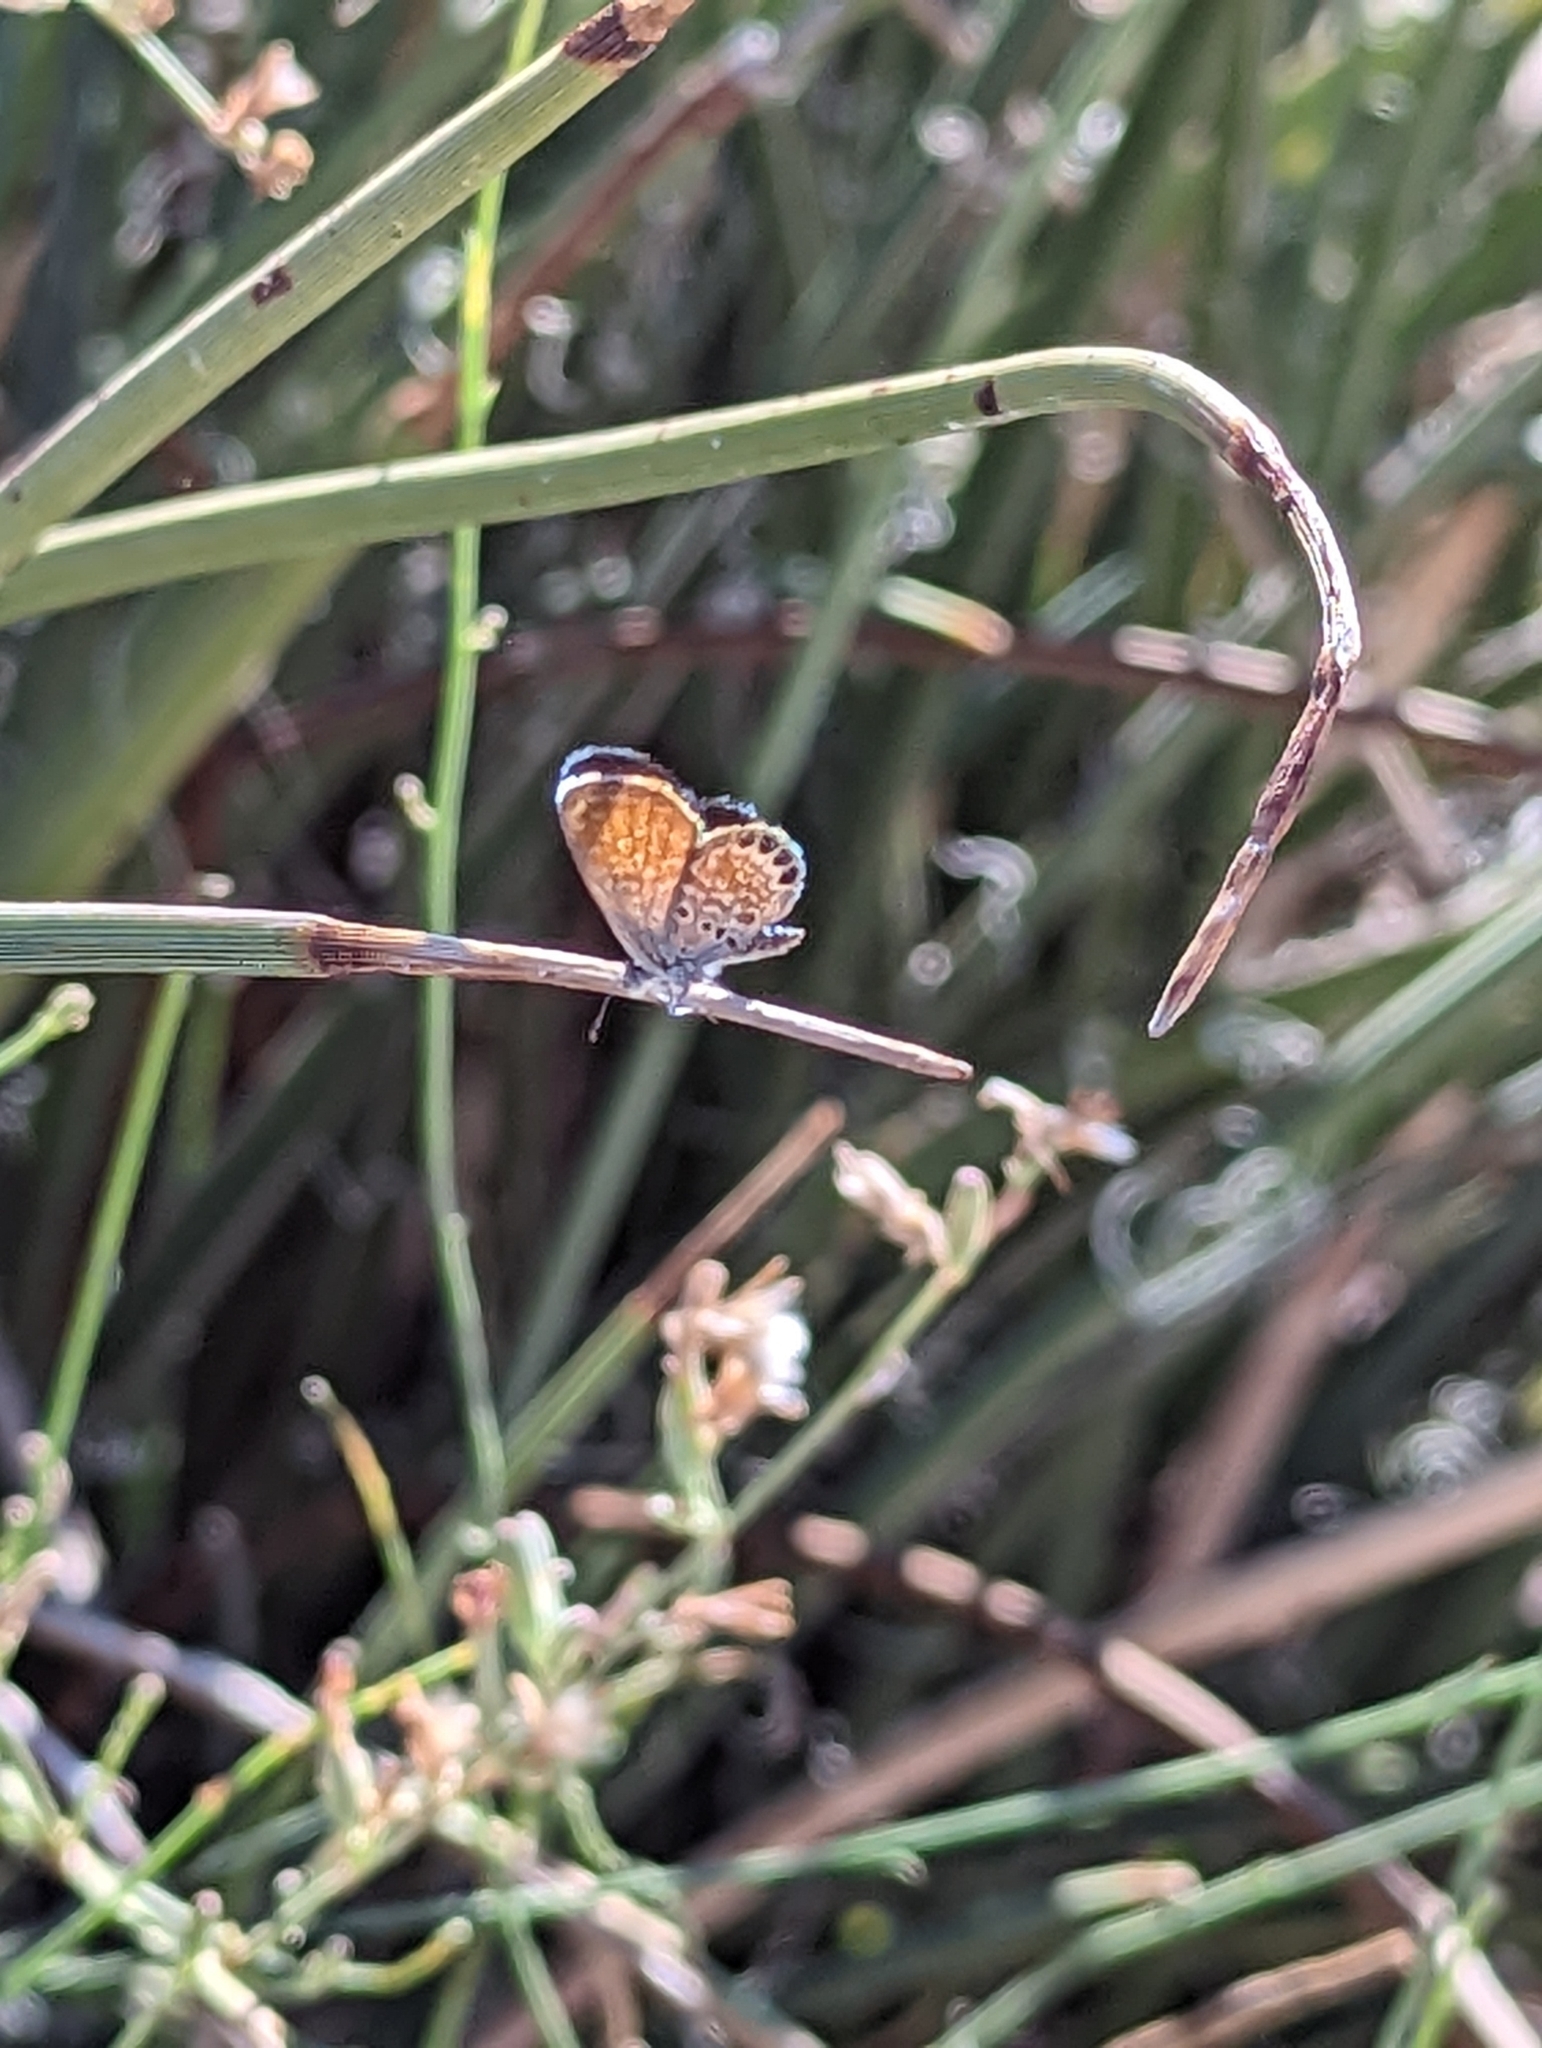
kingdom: Animalia
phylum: Arthropoda
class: Insecta
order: Lepidoptera
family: Lycaenidae
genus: Brephidium
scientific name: Brephidium exilis
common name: Pygmy blue
